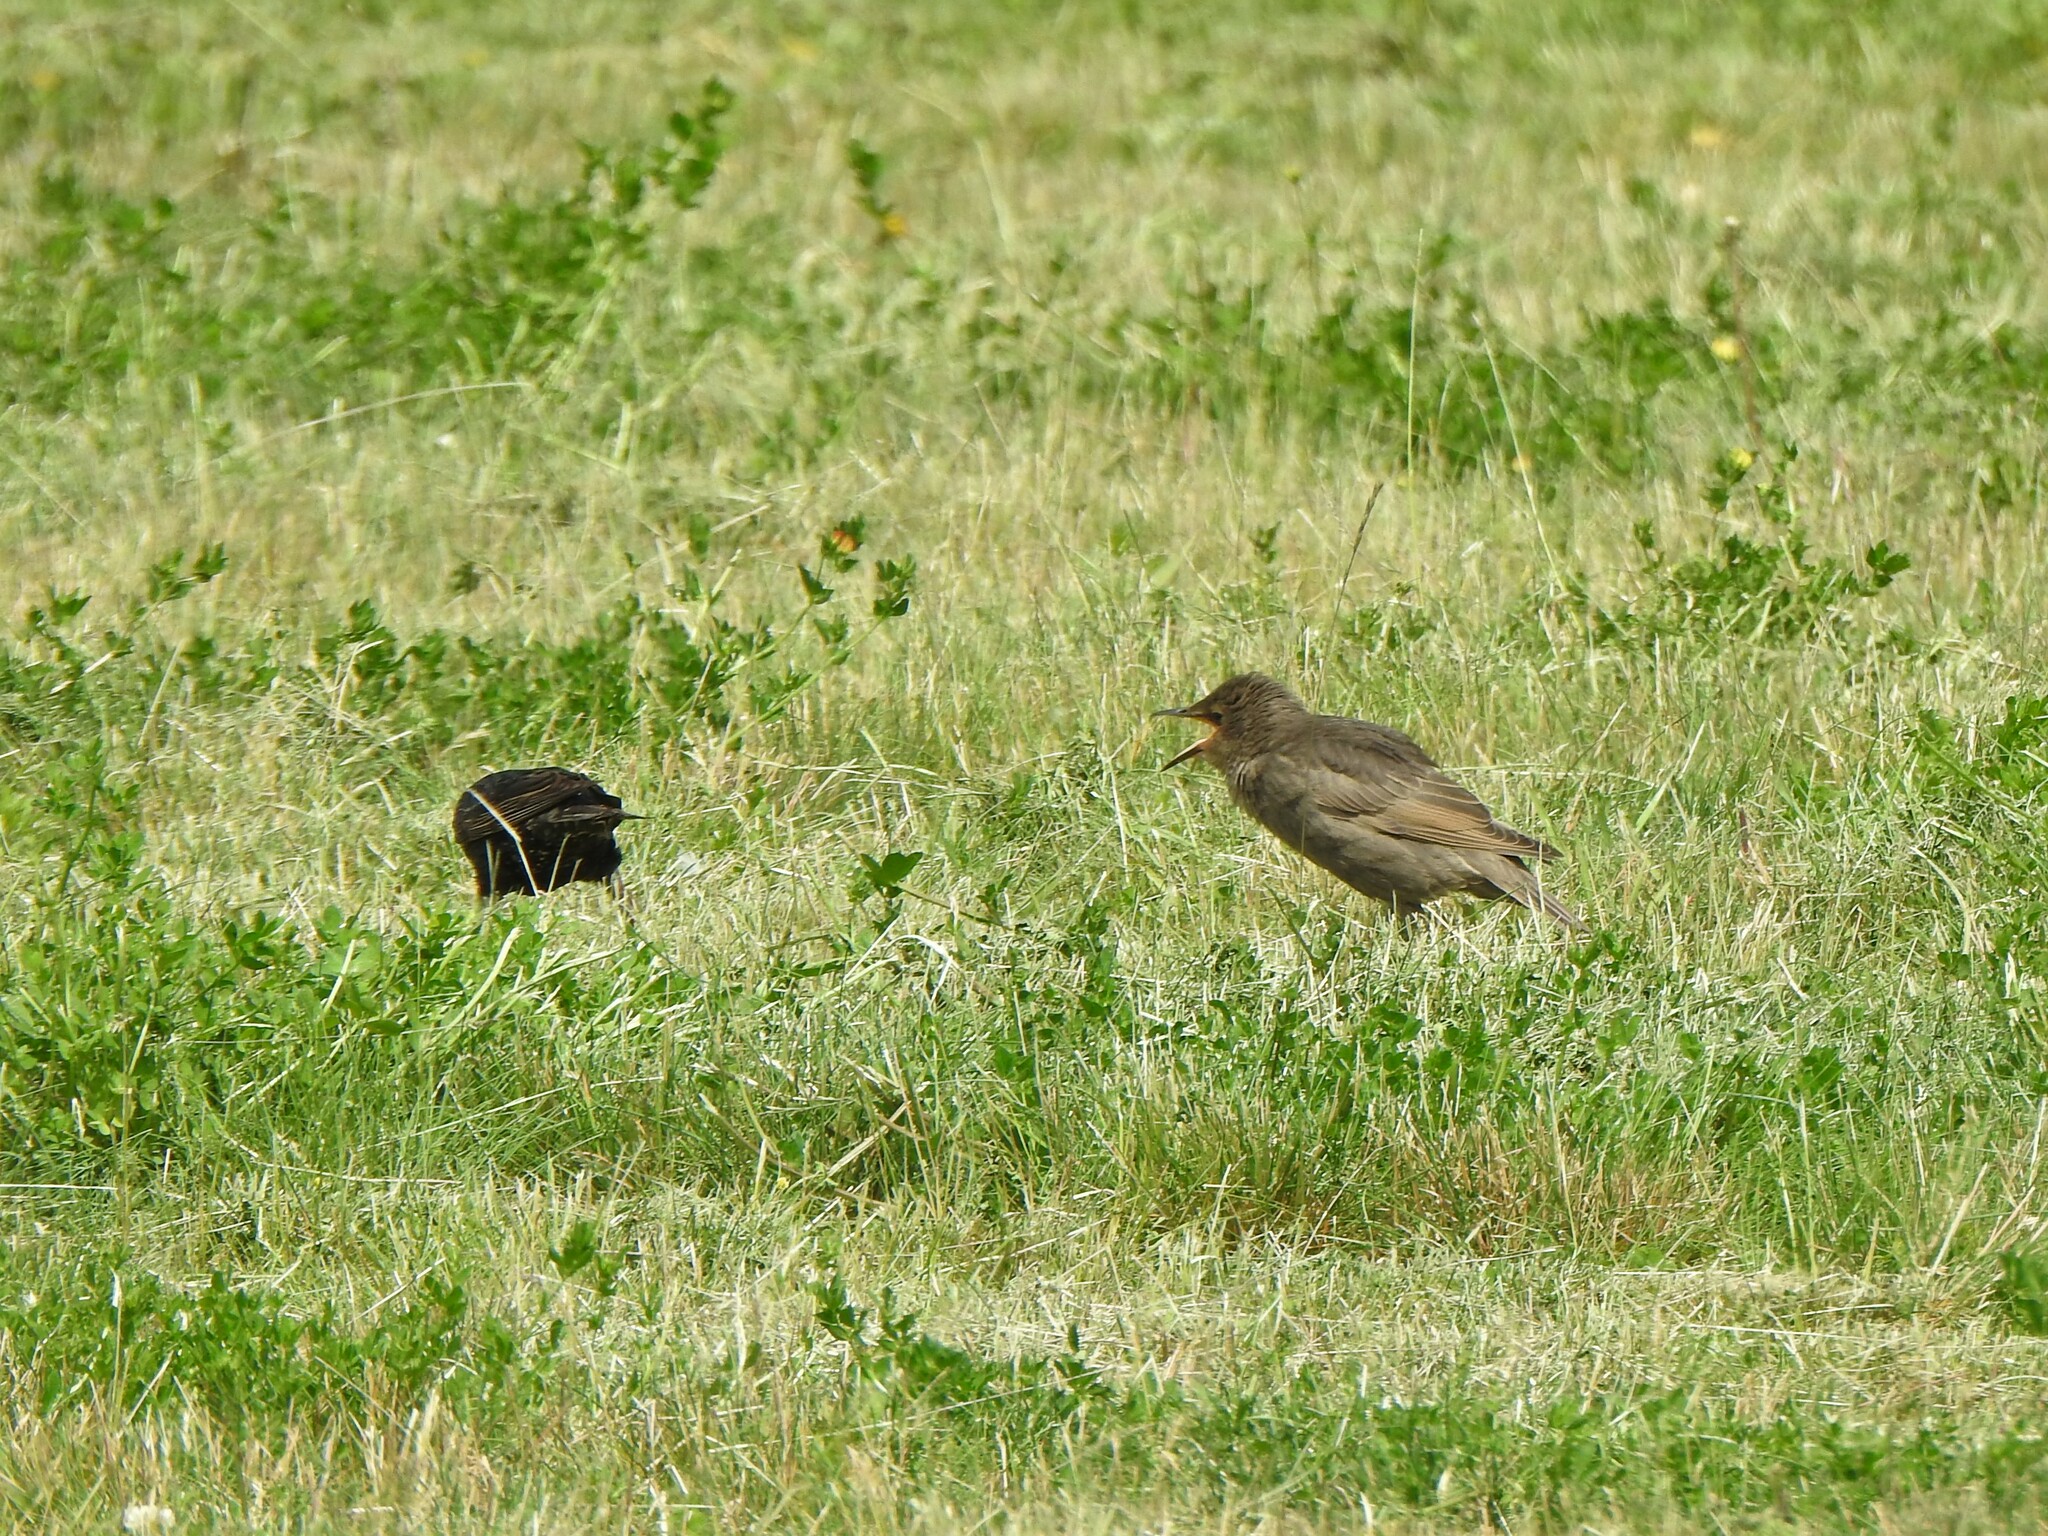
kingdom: Animalia
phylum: Chordata
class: Aves
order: Passeriformes
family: Sturnidae
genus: Sturnus
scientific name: Sturnus vulgaris
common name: Common starling
